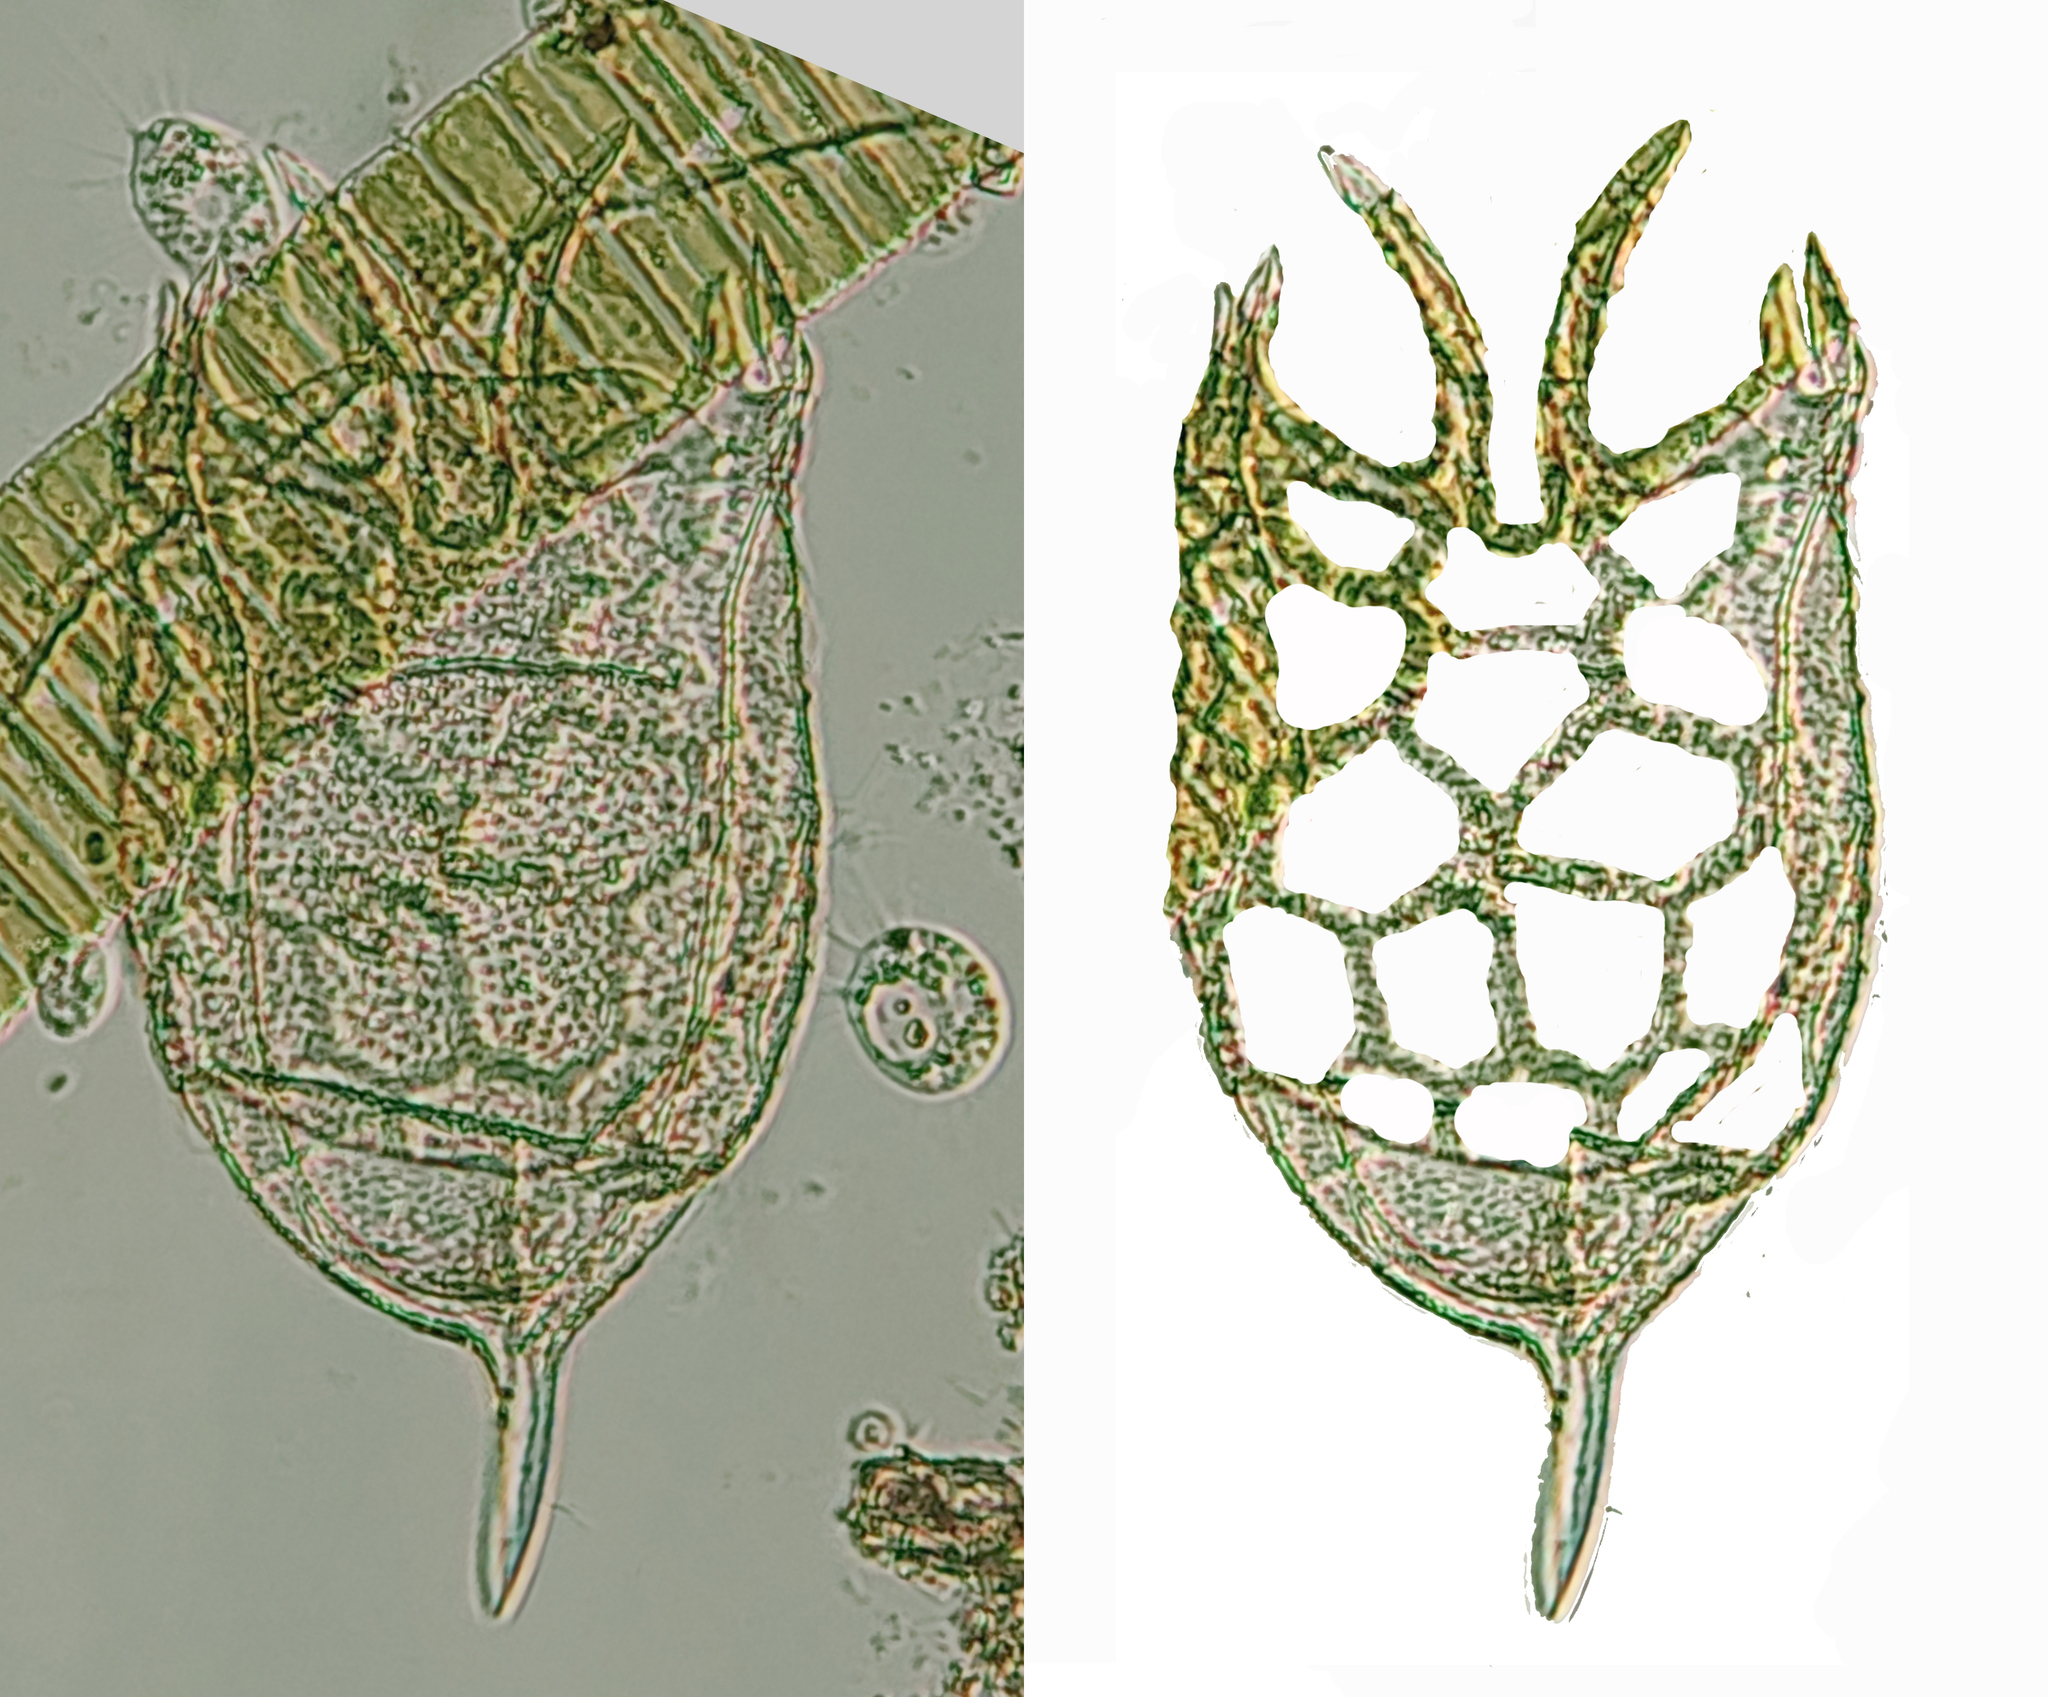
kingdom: Animalia
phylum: Rotifera
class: Eurotatoria
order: Ploima
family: Brachionidae
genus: Keratella
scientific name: Keratella mixta
